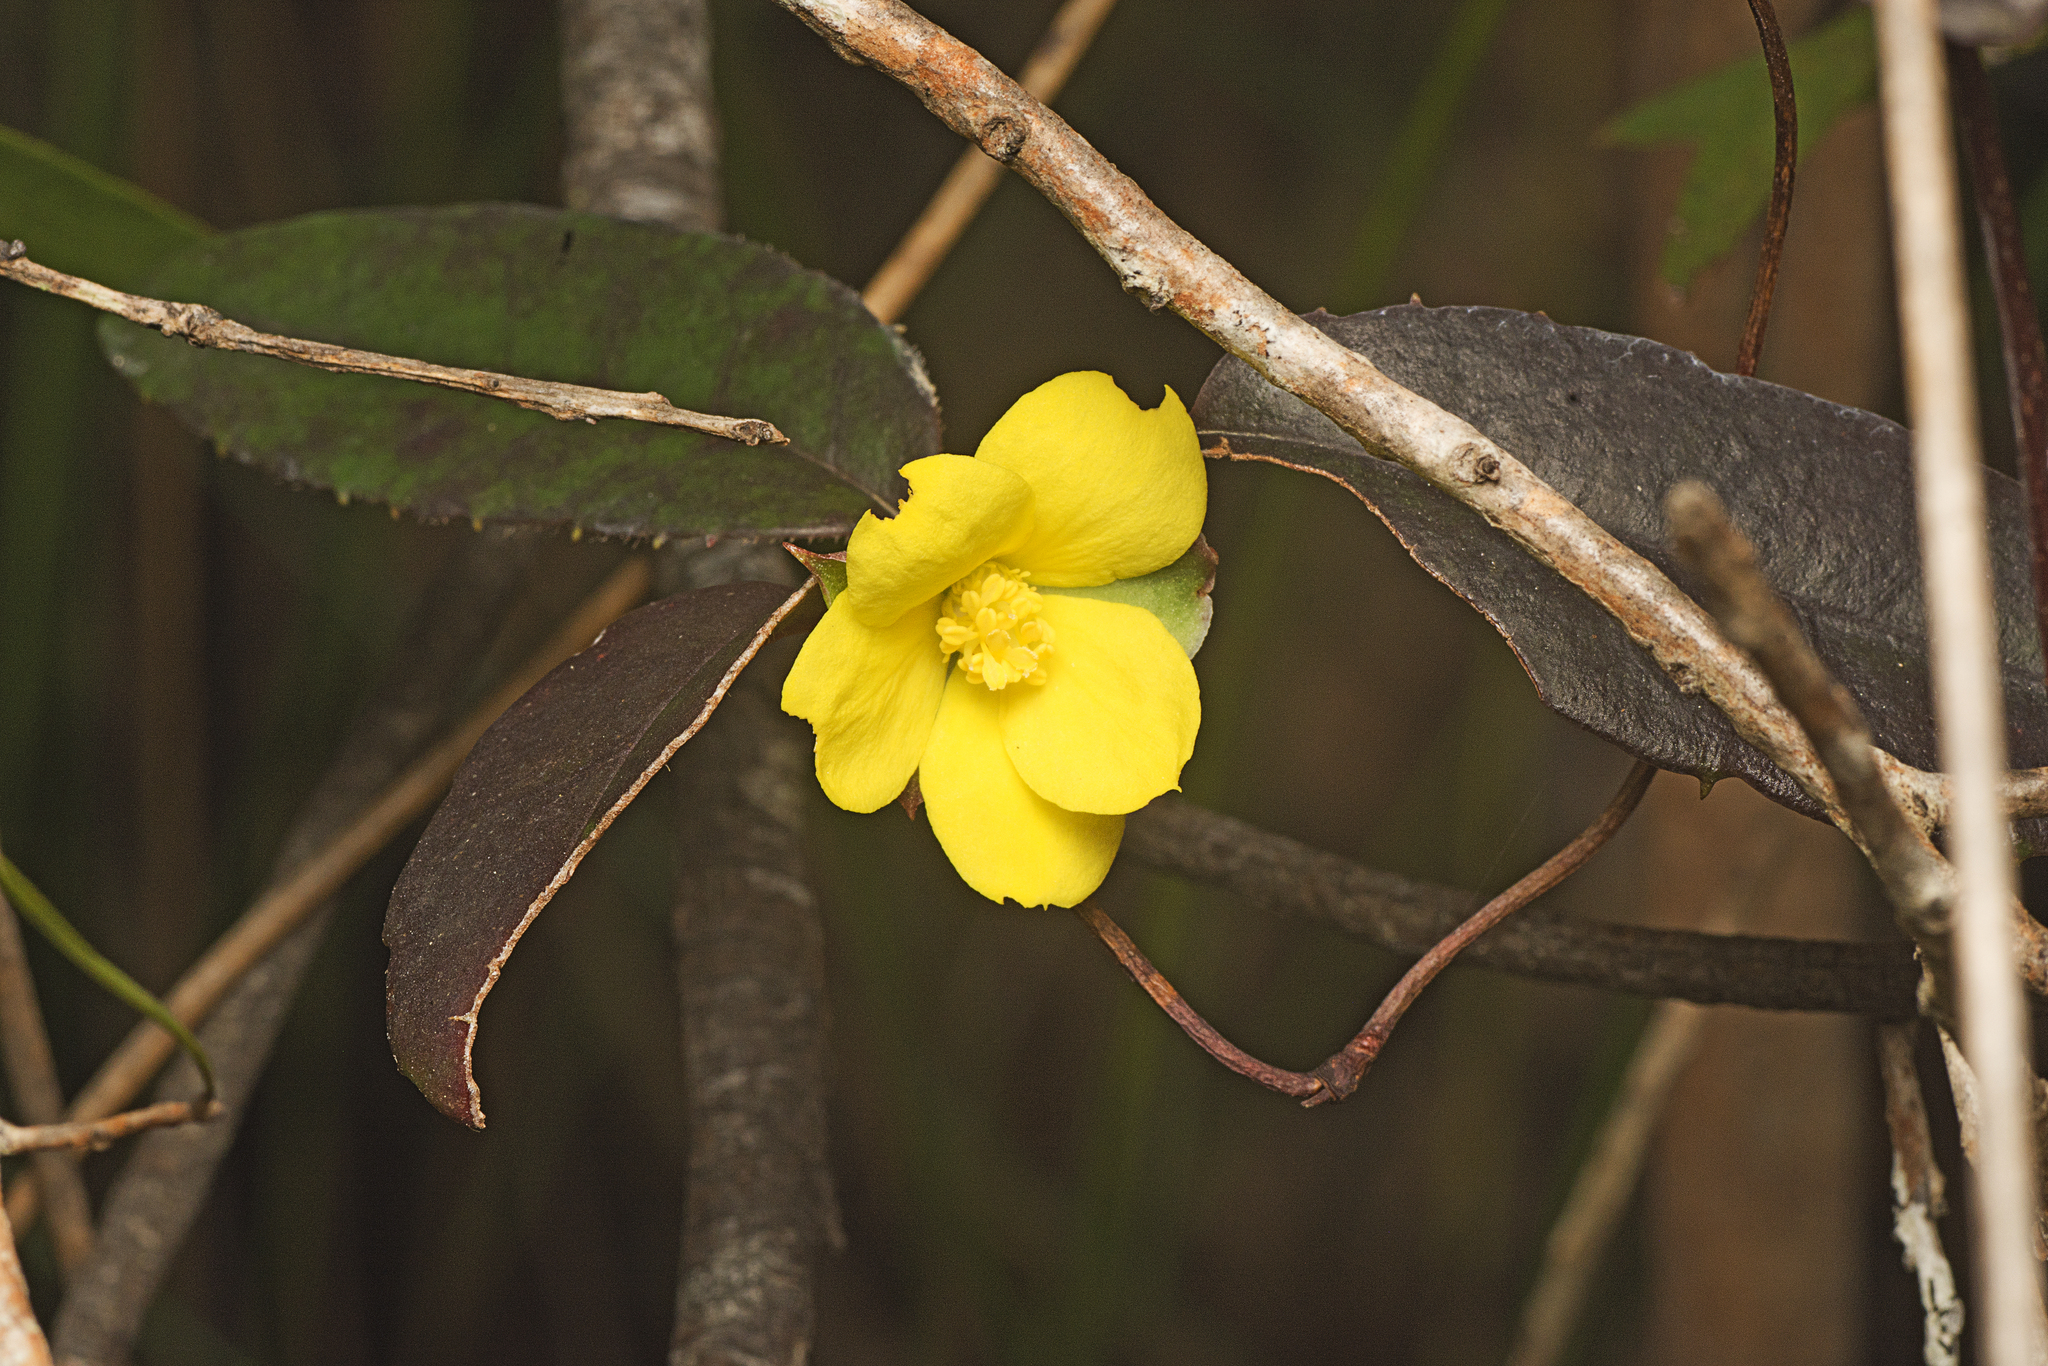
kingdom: Plantae
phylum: Tracheophyta
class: Magnoliopsida
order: Dilleniales
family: Dilleniaceae
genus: Hibbertia
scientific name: Hibbertia dentata
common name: Trailing guinea-flower
